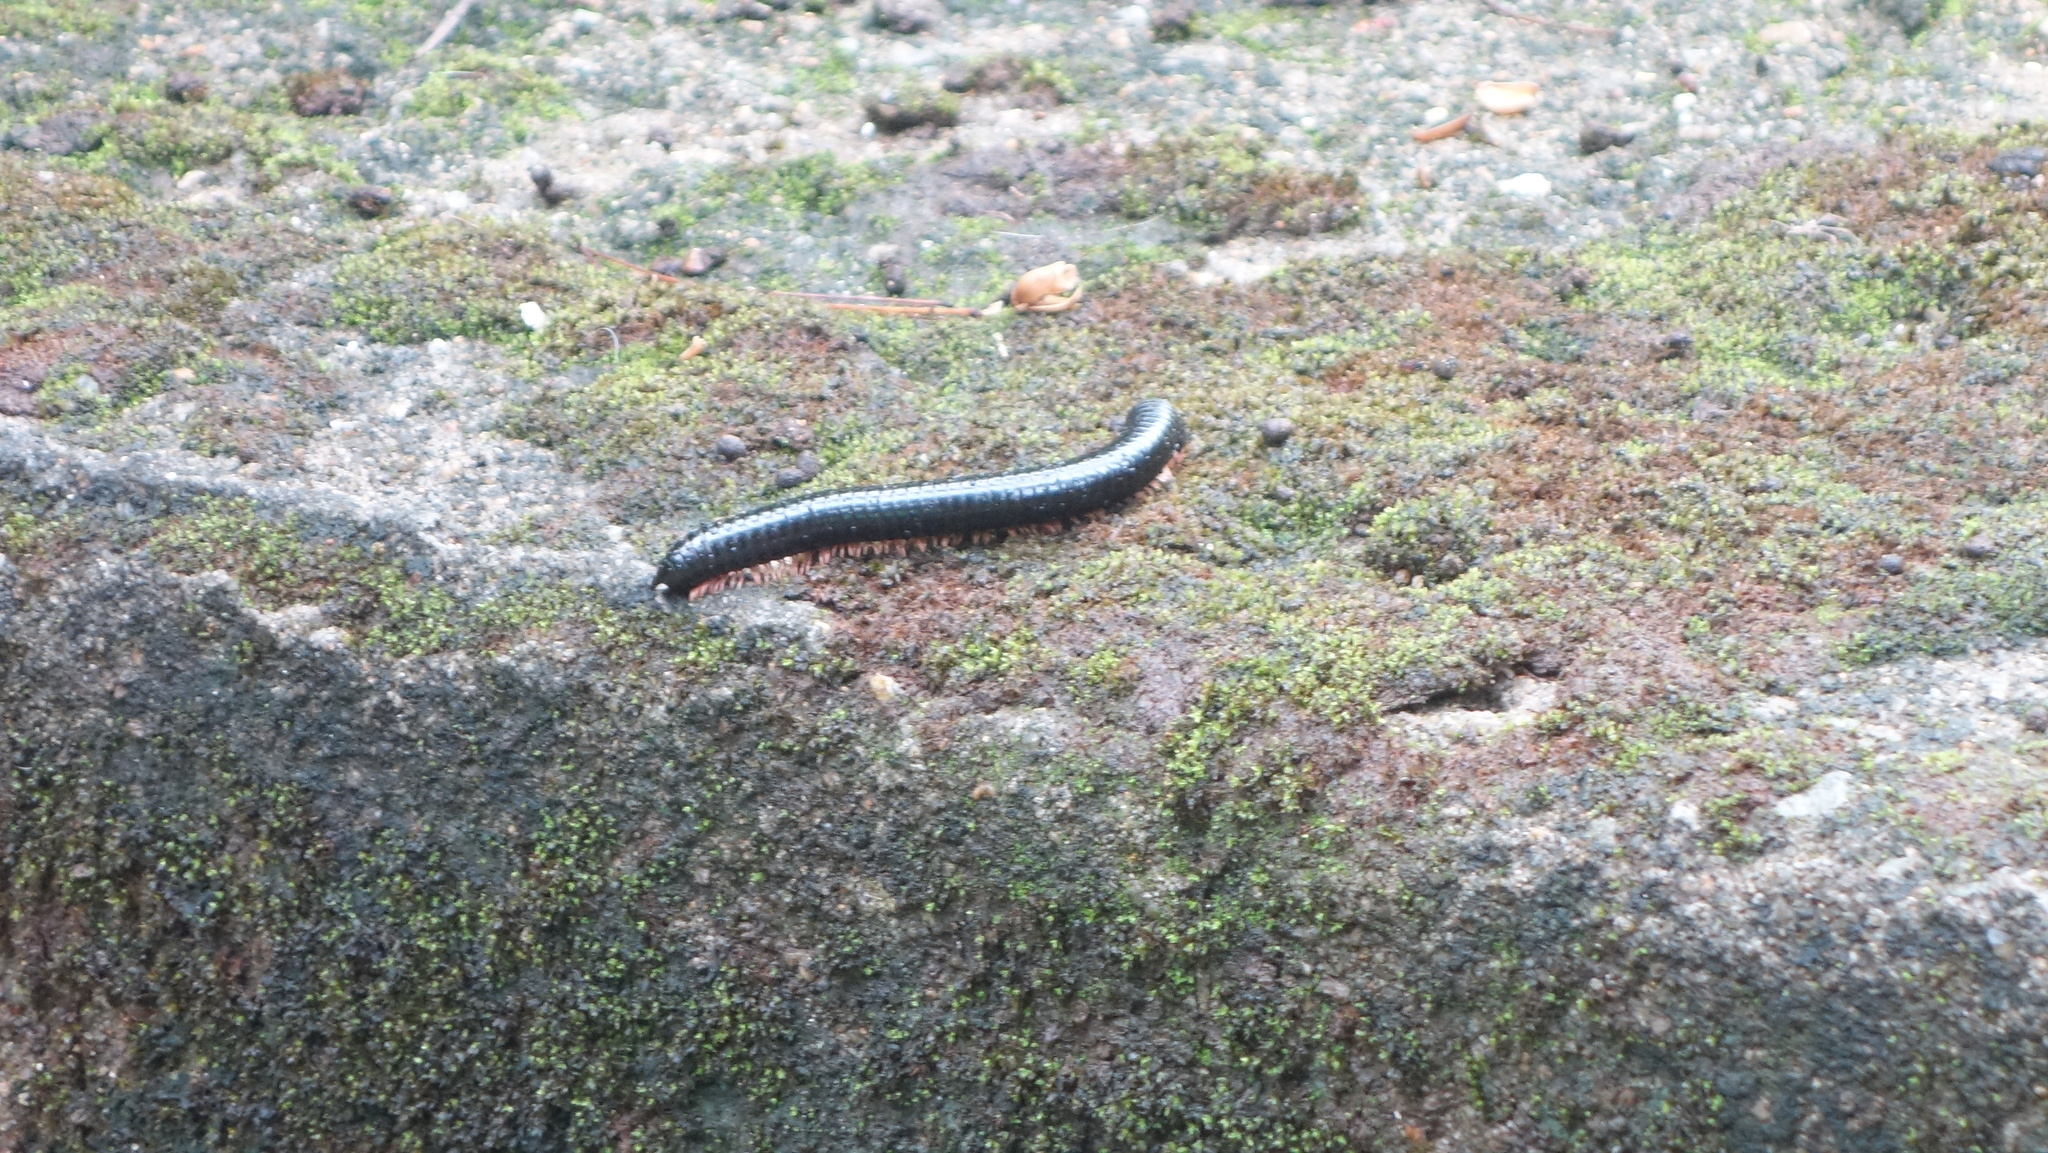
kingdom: Animalia
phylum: Arthropoda
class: Diplopoda
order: Spirostreptida
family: Harpagophoridae
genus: Phyllogonostreptus
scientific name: Phyllogonostreptus nigrolabiatus
